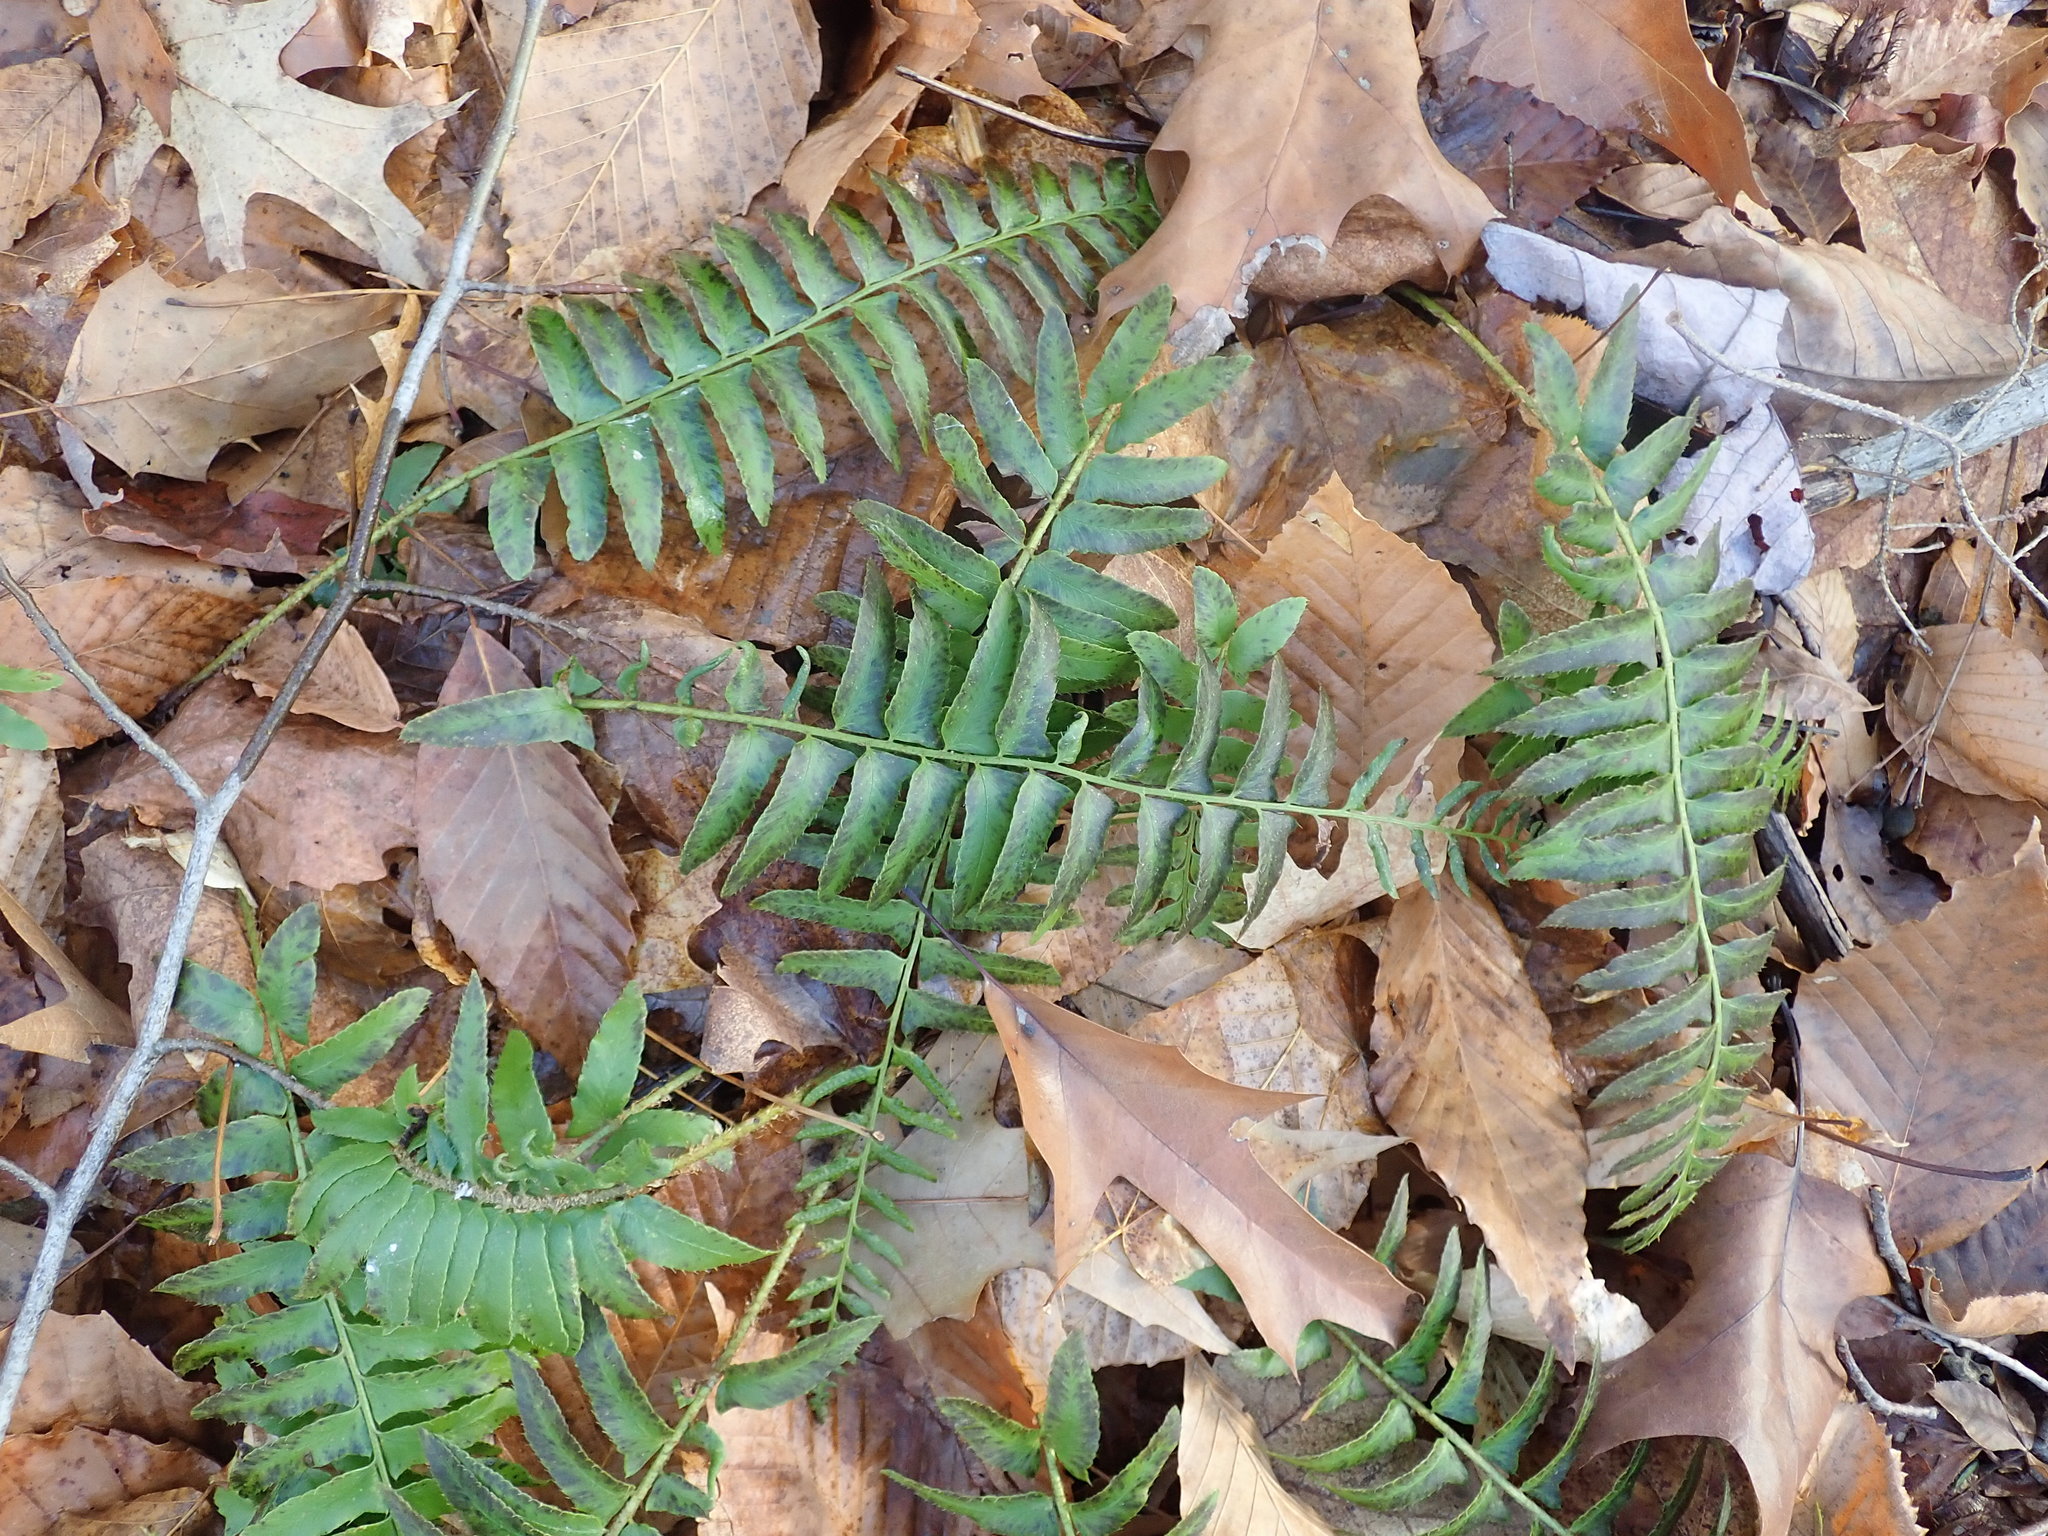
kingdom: Plantae
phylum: Tracheophyta
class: Polypodiopsida
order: Polypodiales
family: Dryopteridaceae
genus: Polystichum
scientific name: Polystichum acrostichoides
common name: Christmas fern
